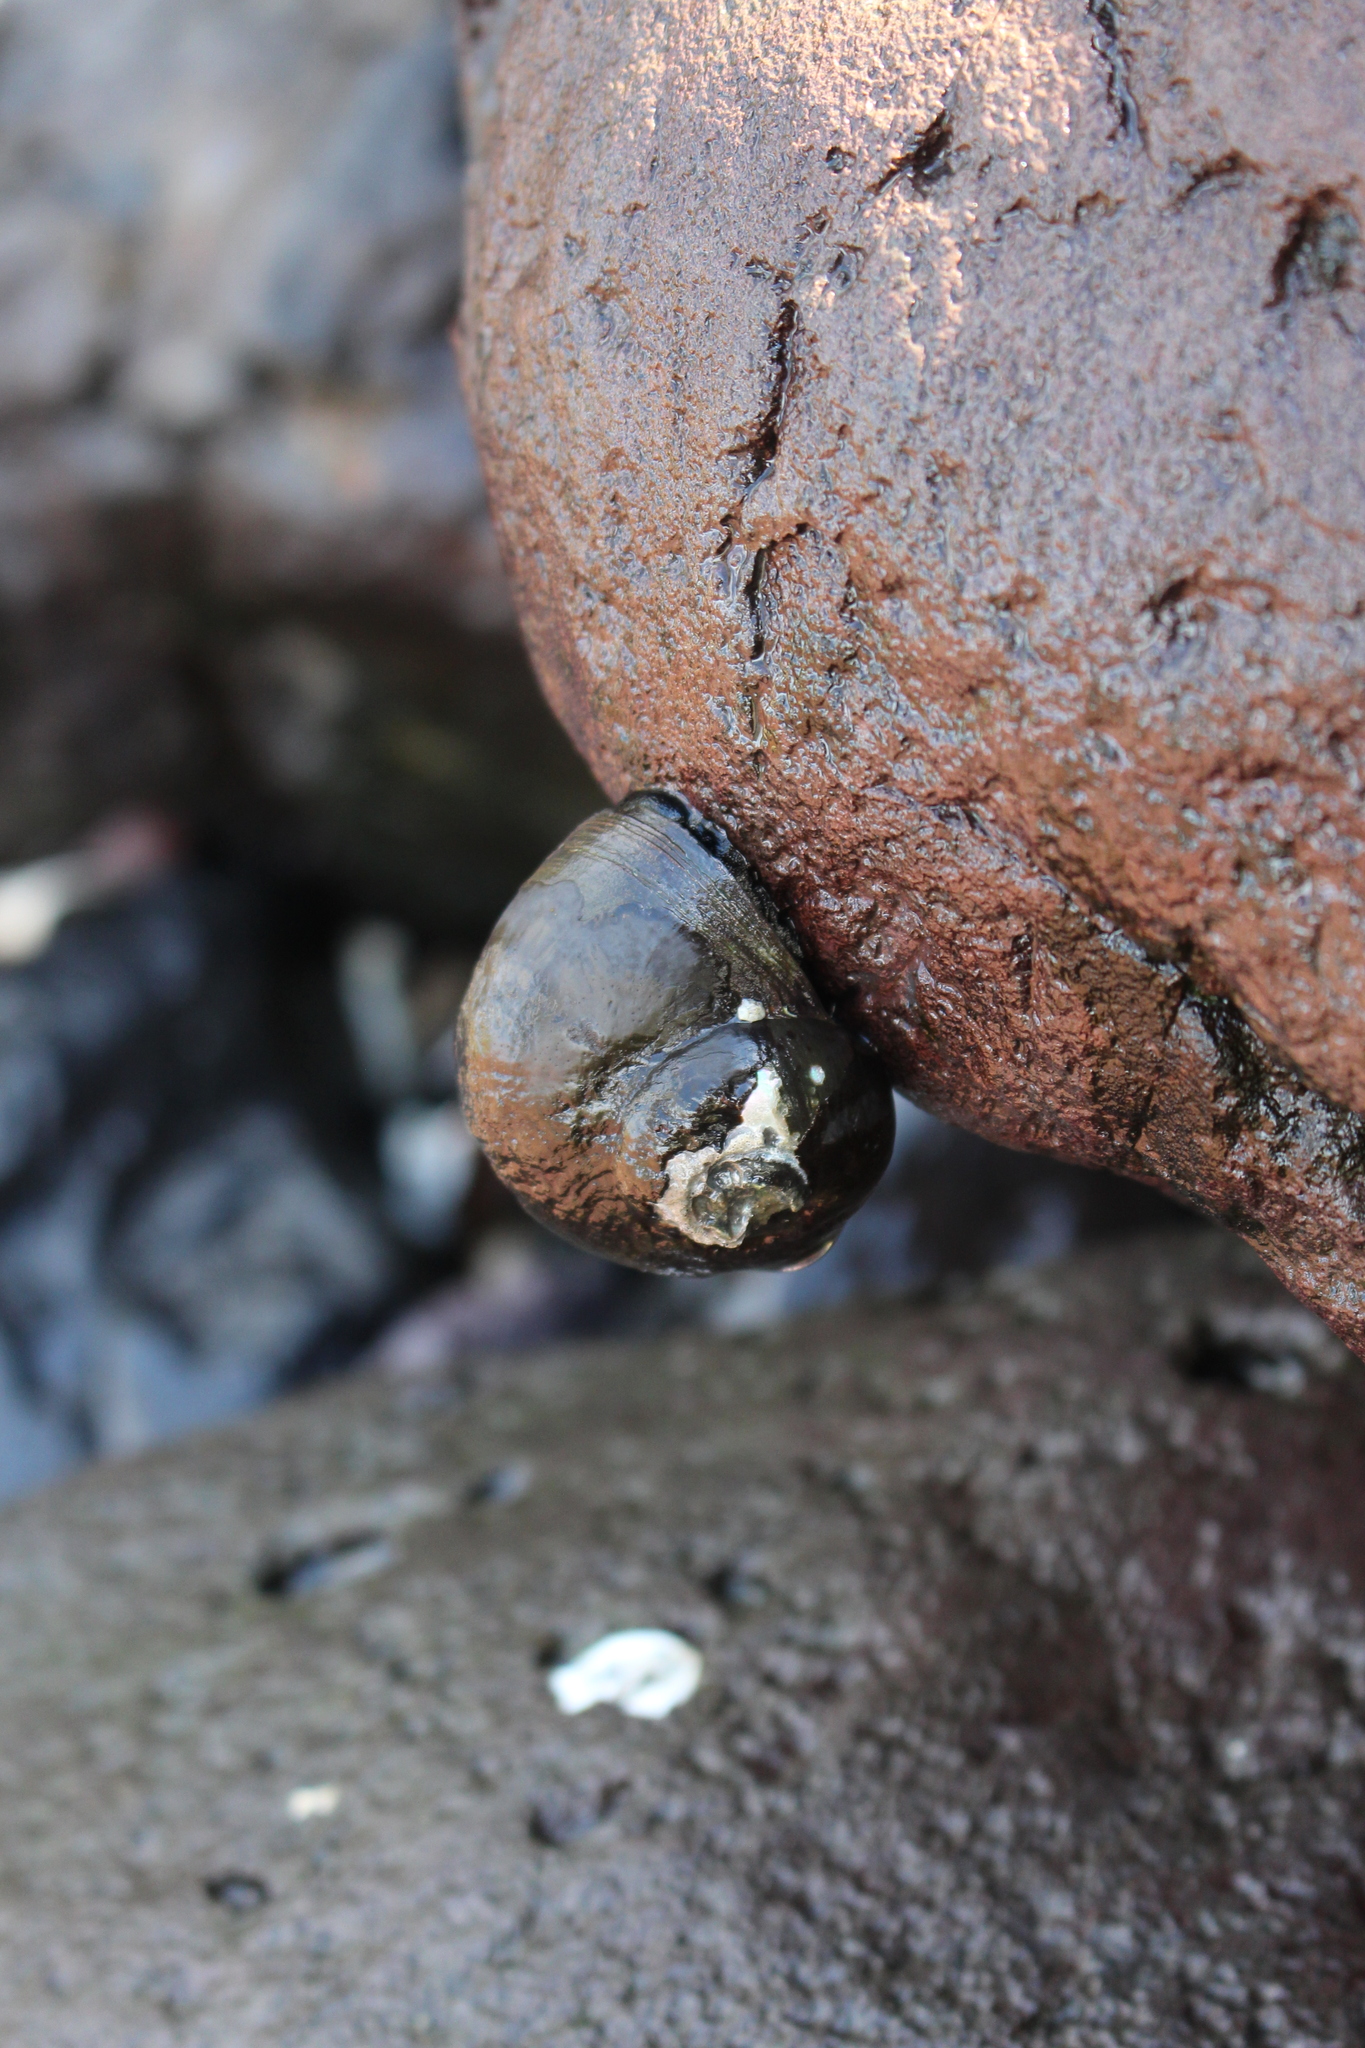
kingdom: Animalia
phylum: Mollusca
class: Gastropoda
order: Trochida
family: Turbinidae
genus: Lunella
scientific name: Lunella smaragda
